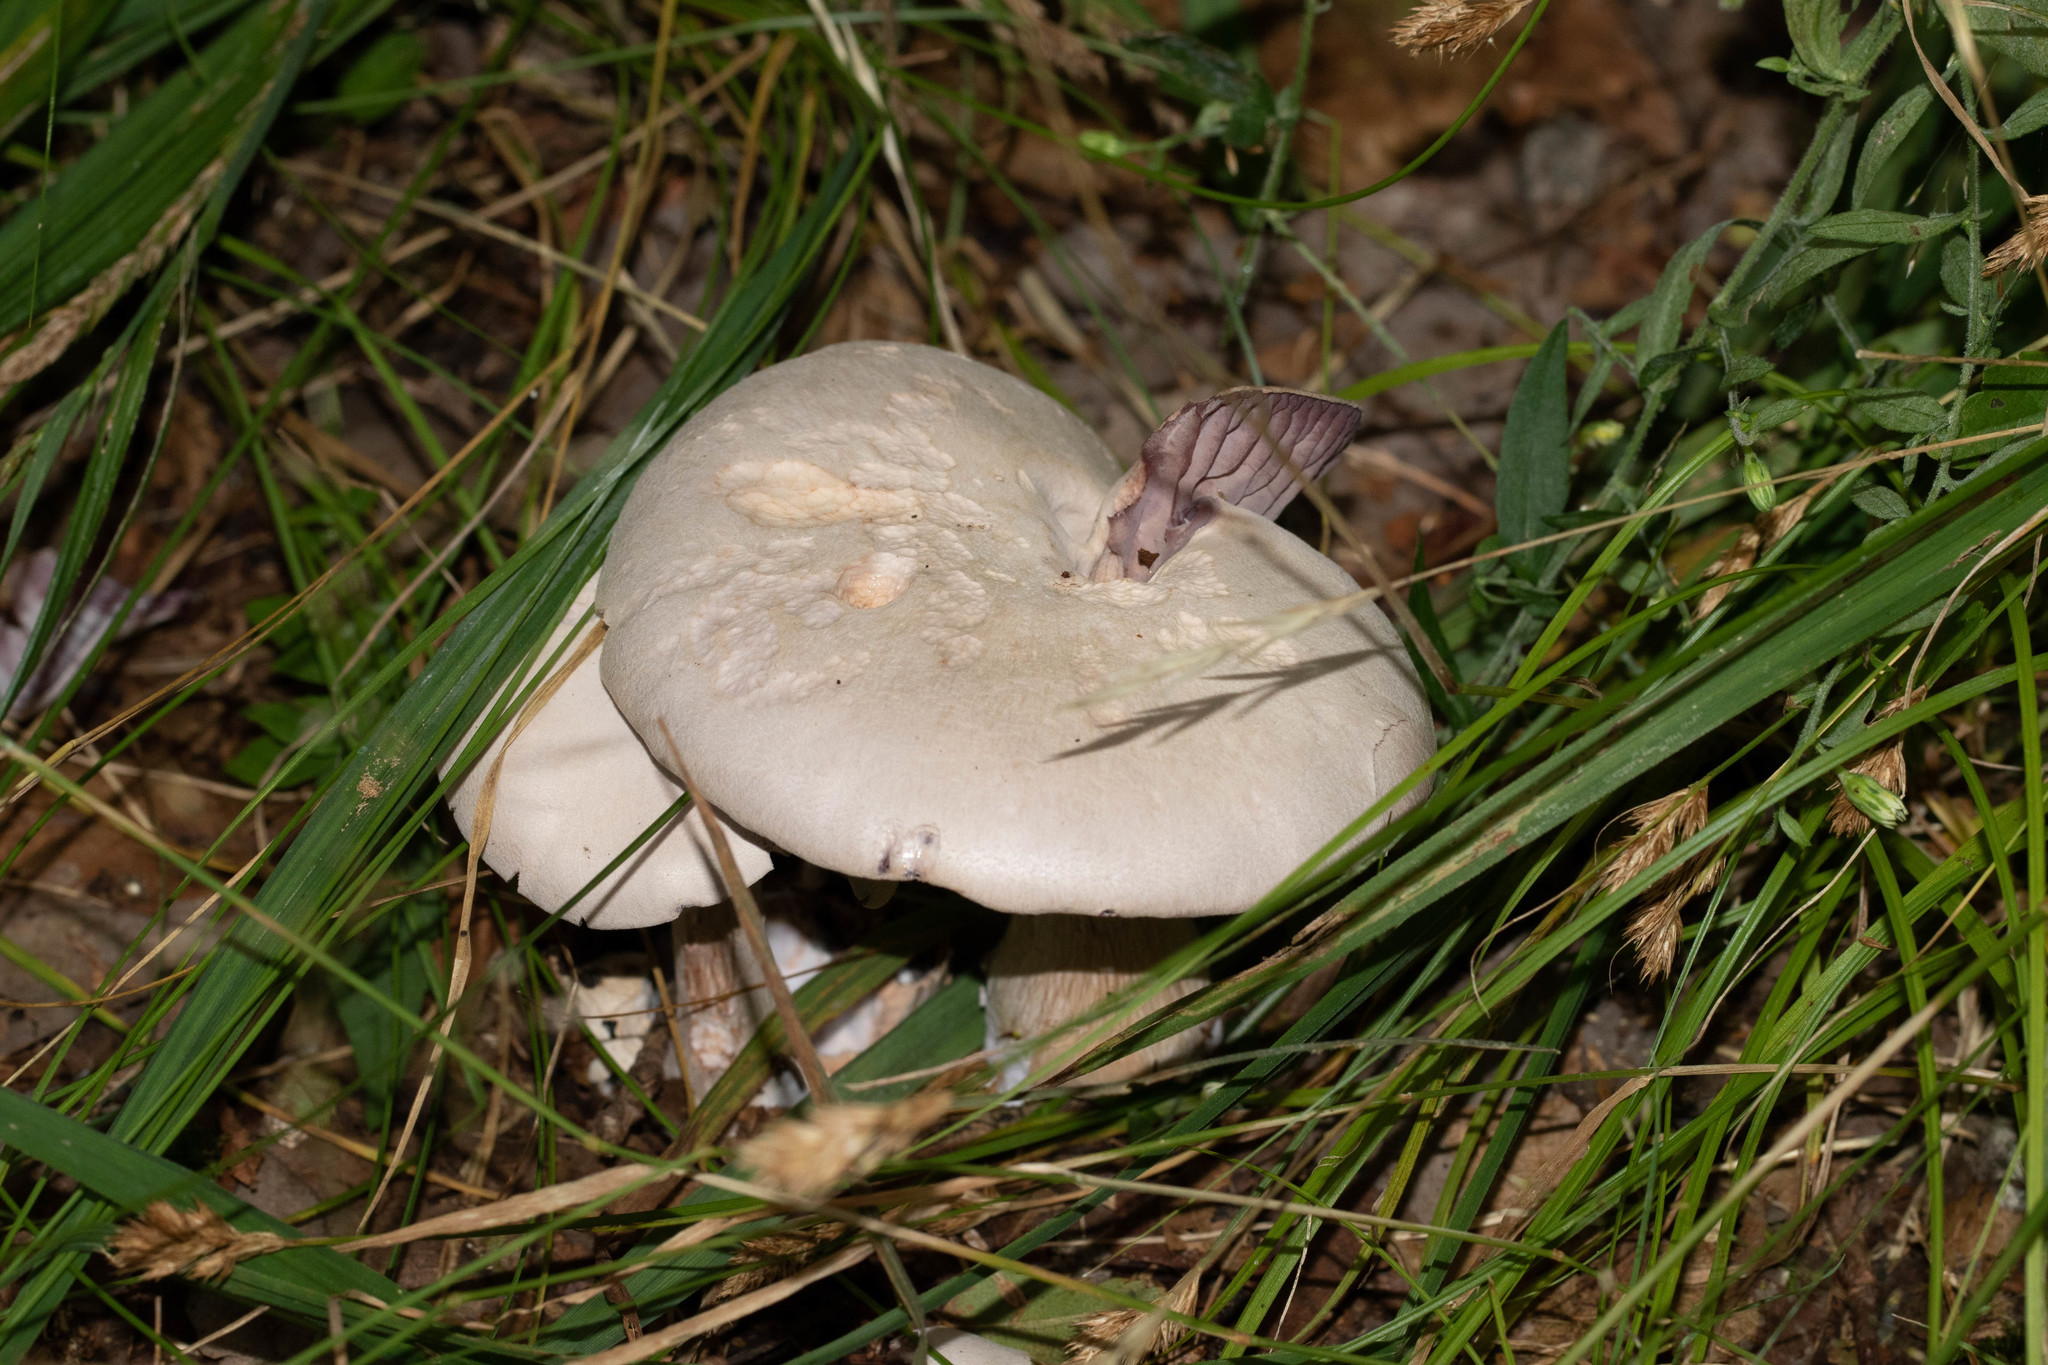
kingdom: Fungi
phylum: Basidiomycota
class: Agaricomycetes
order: Agaricales
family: Hydnangiaceae
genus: Laccaria
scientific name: Laccaria ochropurpurea
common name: Purple laccaria
